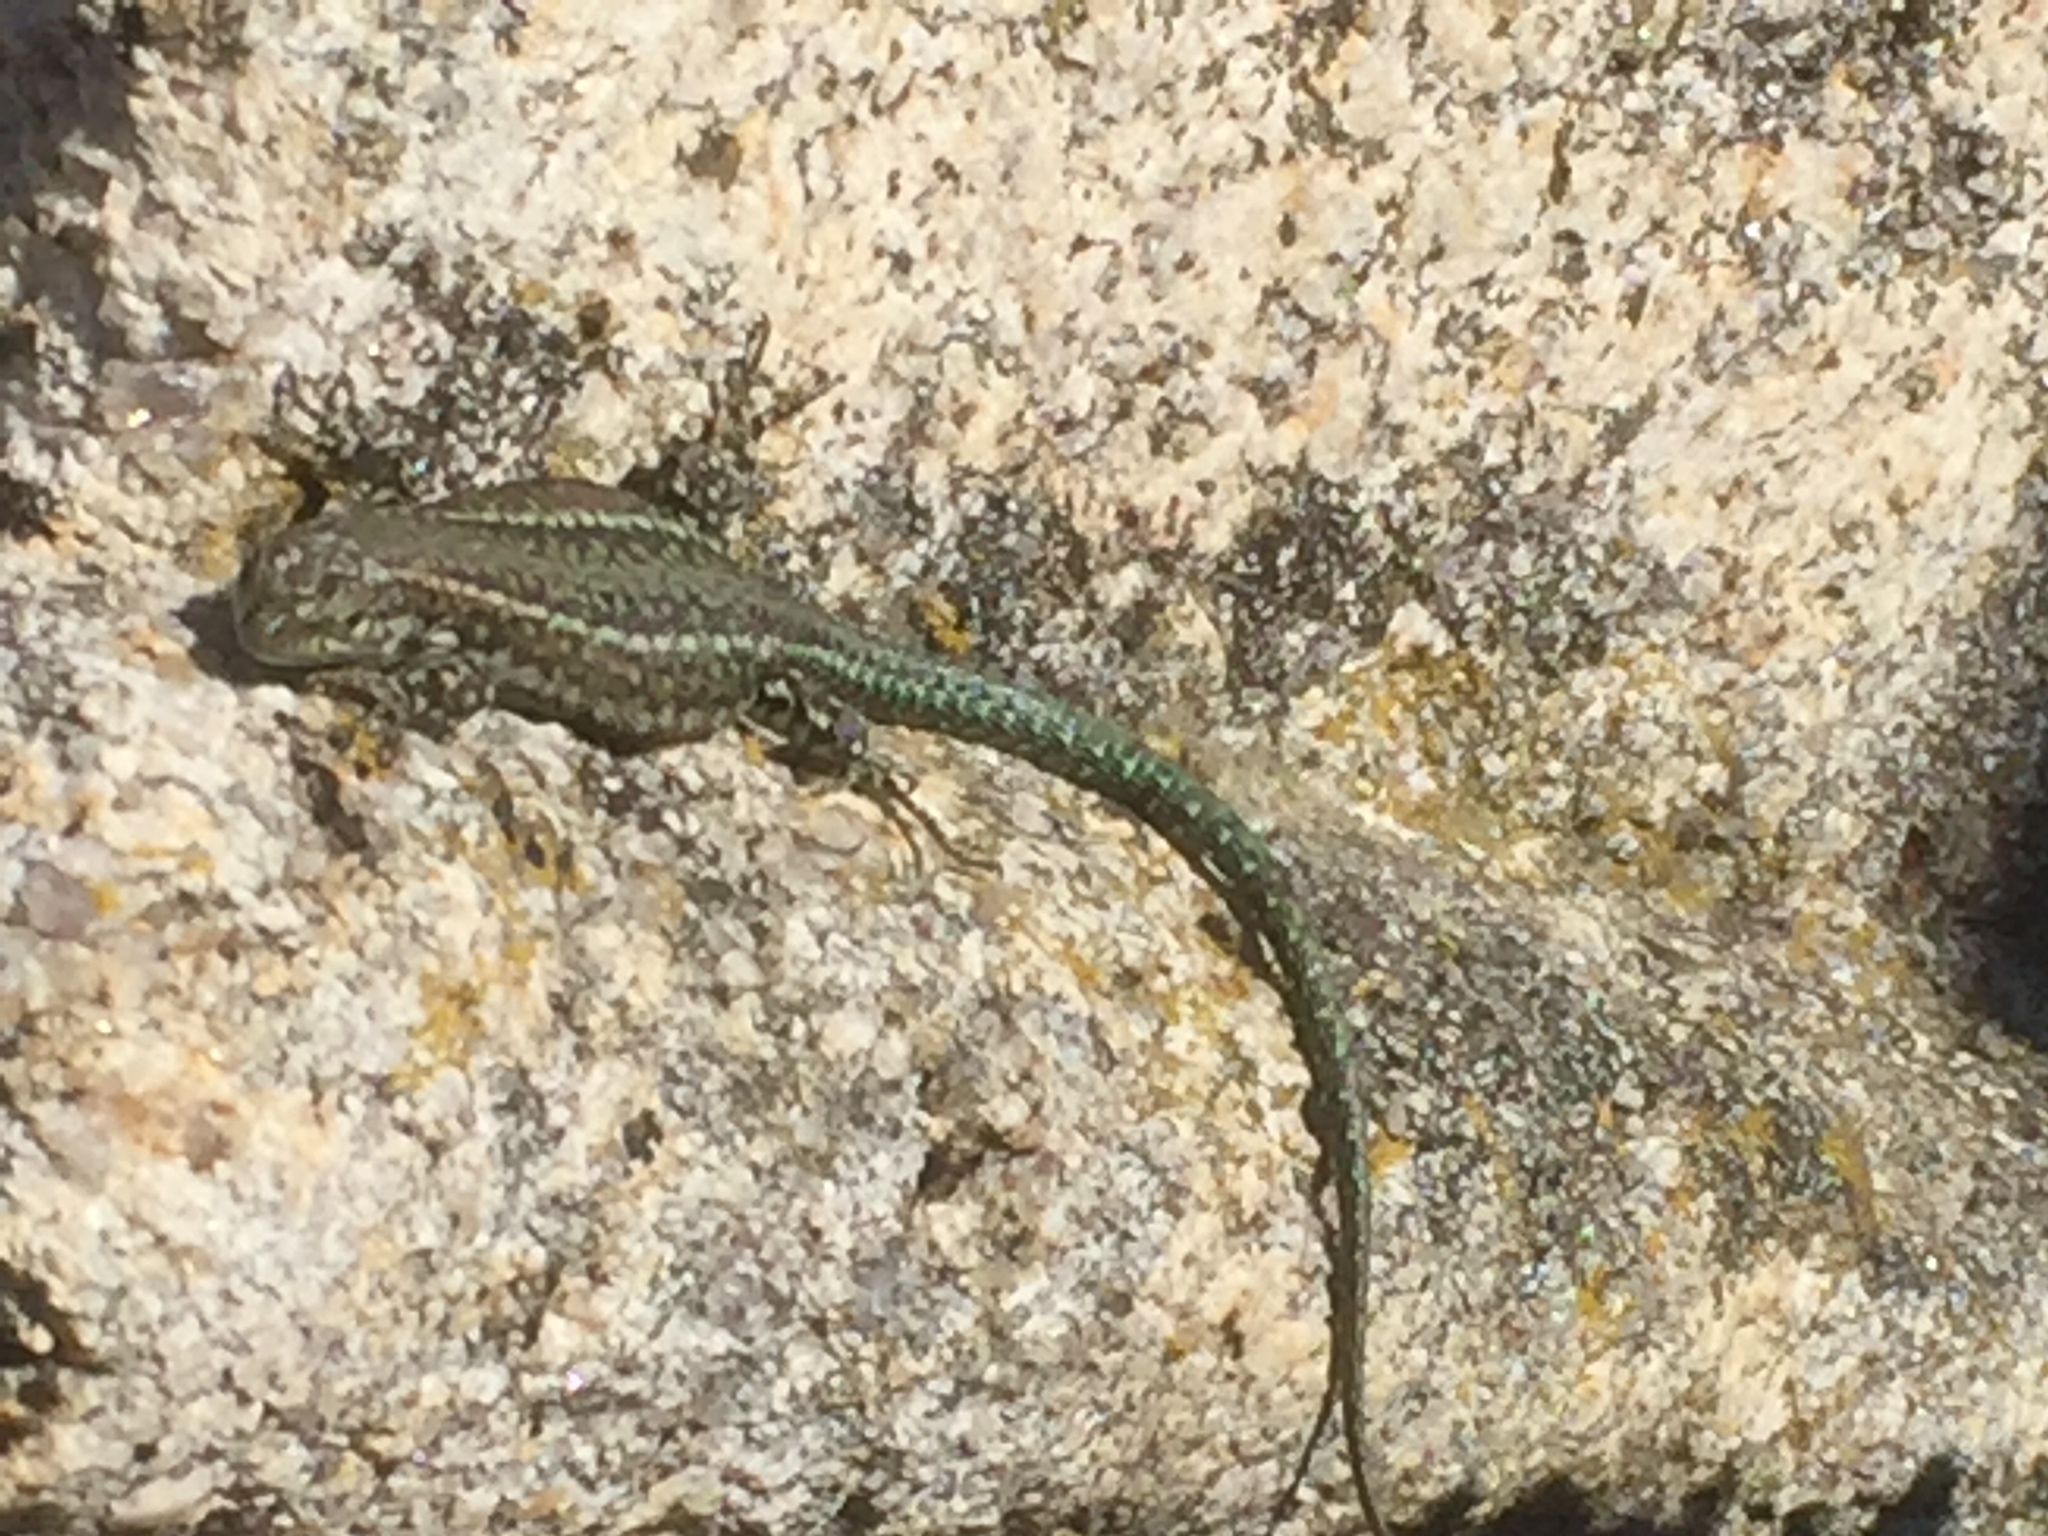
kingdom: Animalia
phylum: Chordata
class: Squamata
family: Lacertidae
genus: Podarcis
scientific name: Podarcis
